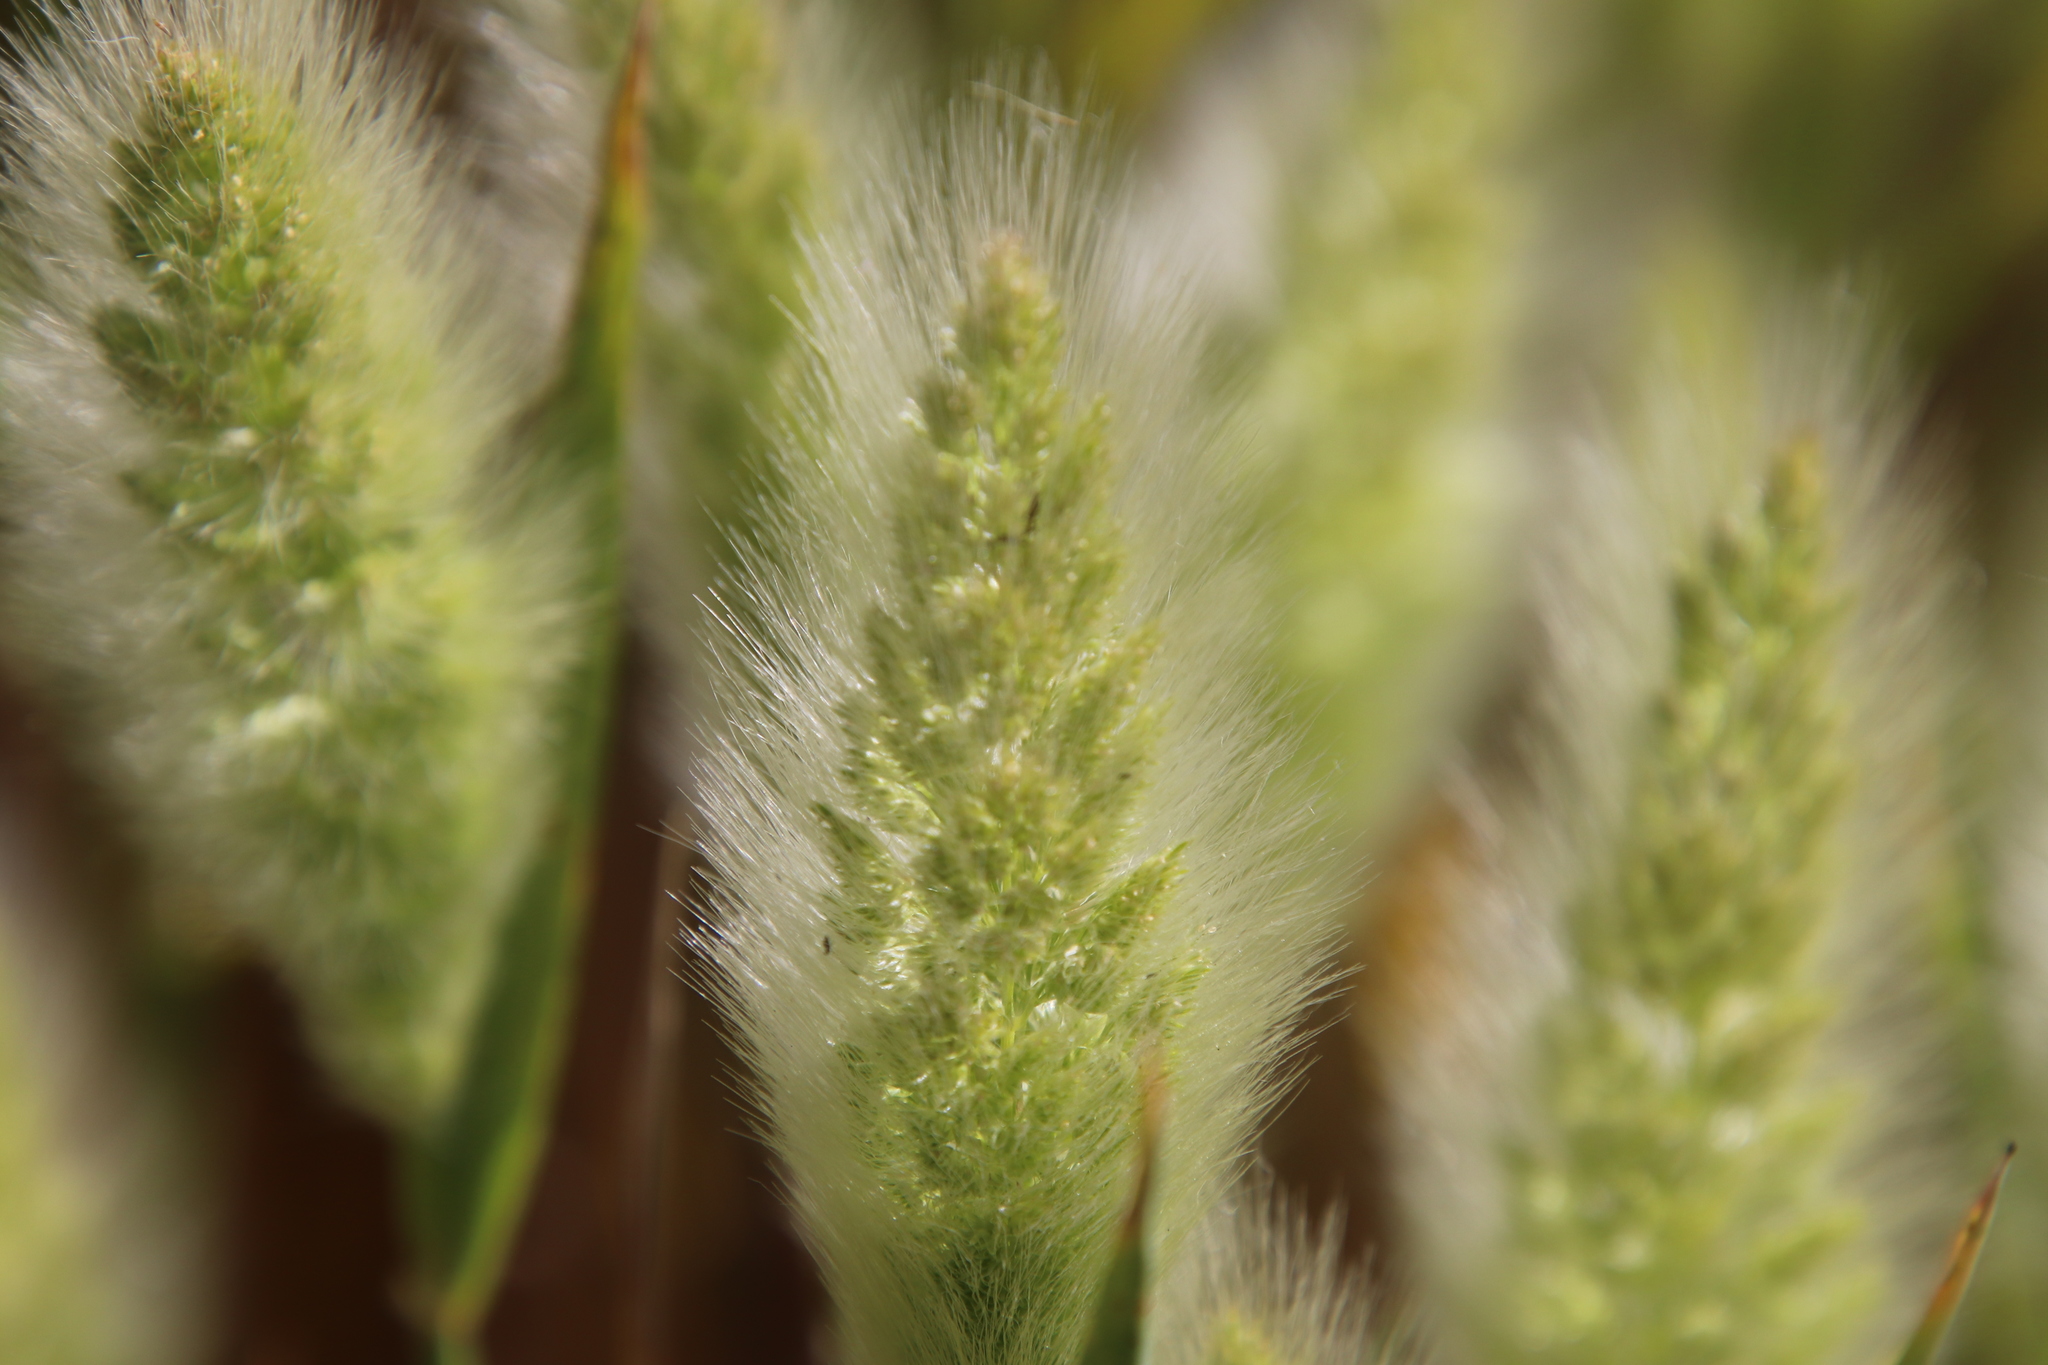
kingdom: Plantae
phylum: Tracheophyta
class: Liliopsida
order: Poales
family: Poaceae
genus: Polypogon
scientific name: Polypogon monspeliensis
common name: Annual rabbitsfoot grass
